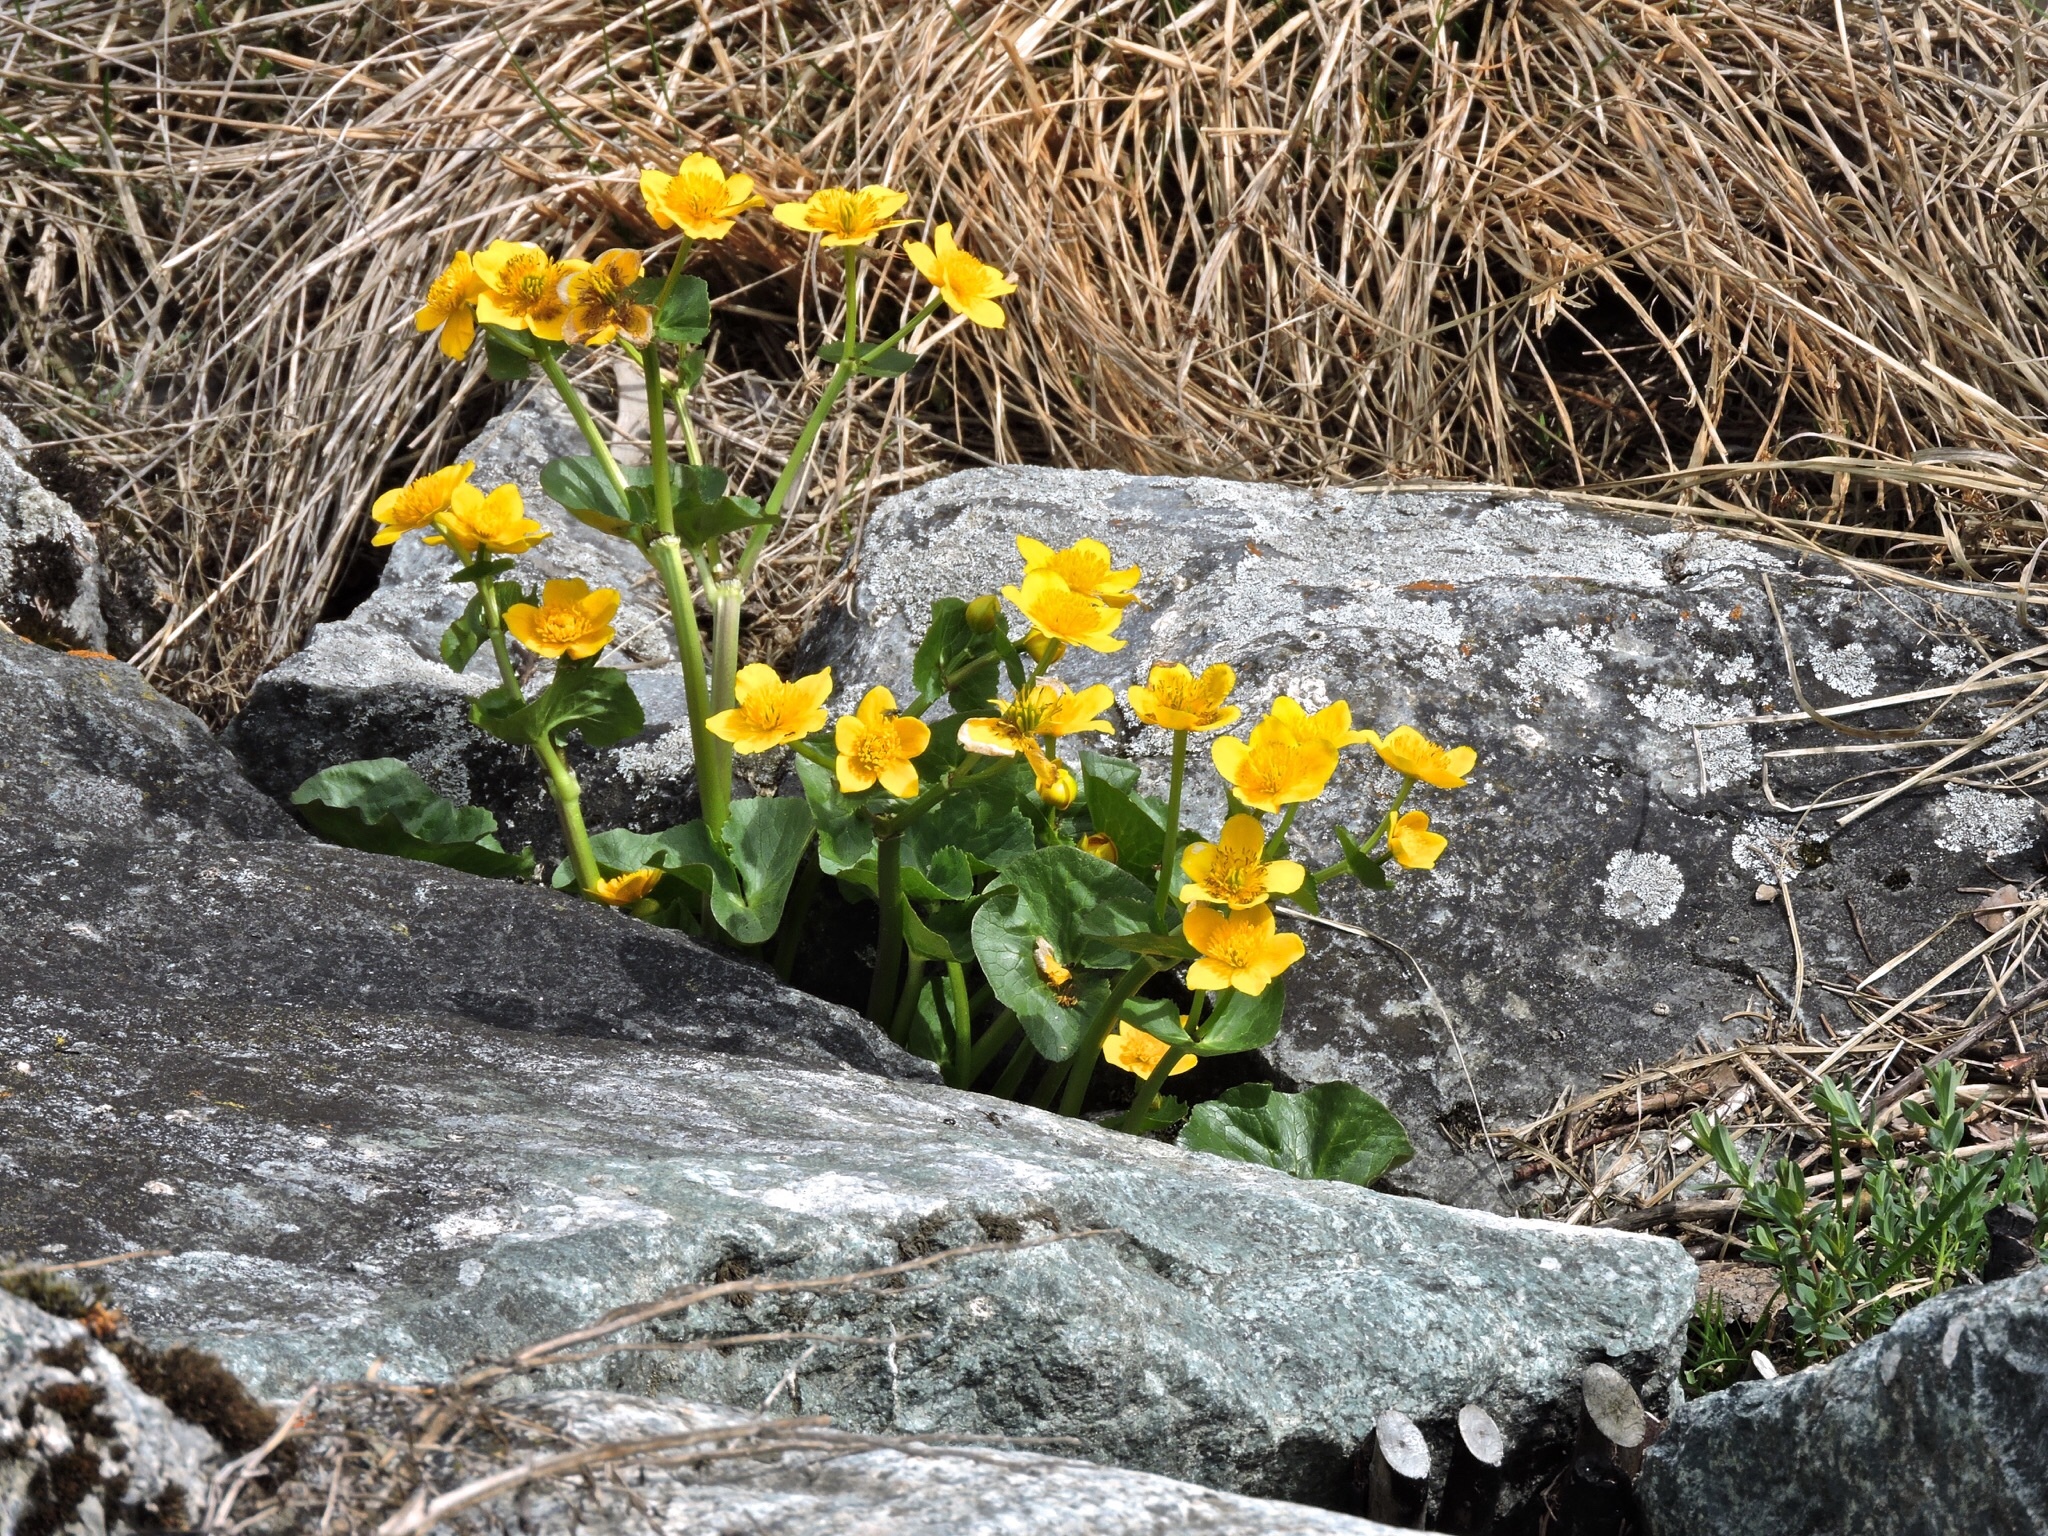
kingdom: Plantae
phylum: Tracheophyta
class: Magnoliopsida
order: Ranunculales
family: Ranunculaceae
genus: Caltha
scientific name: Caltha palustris
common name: Marsh marigold
